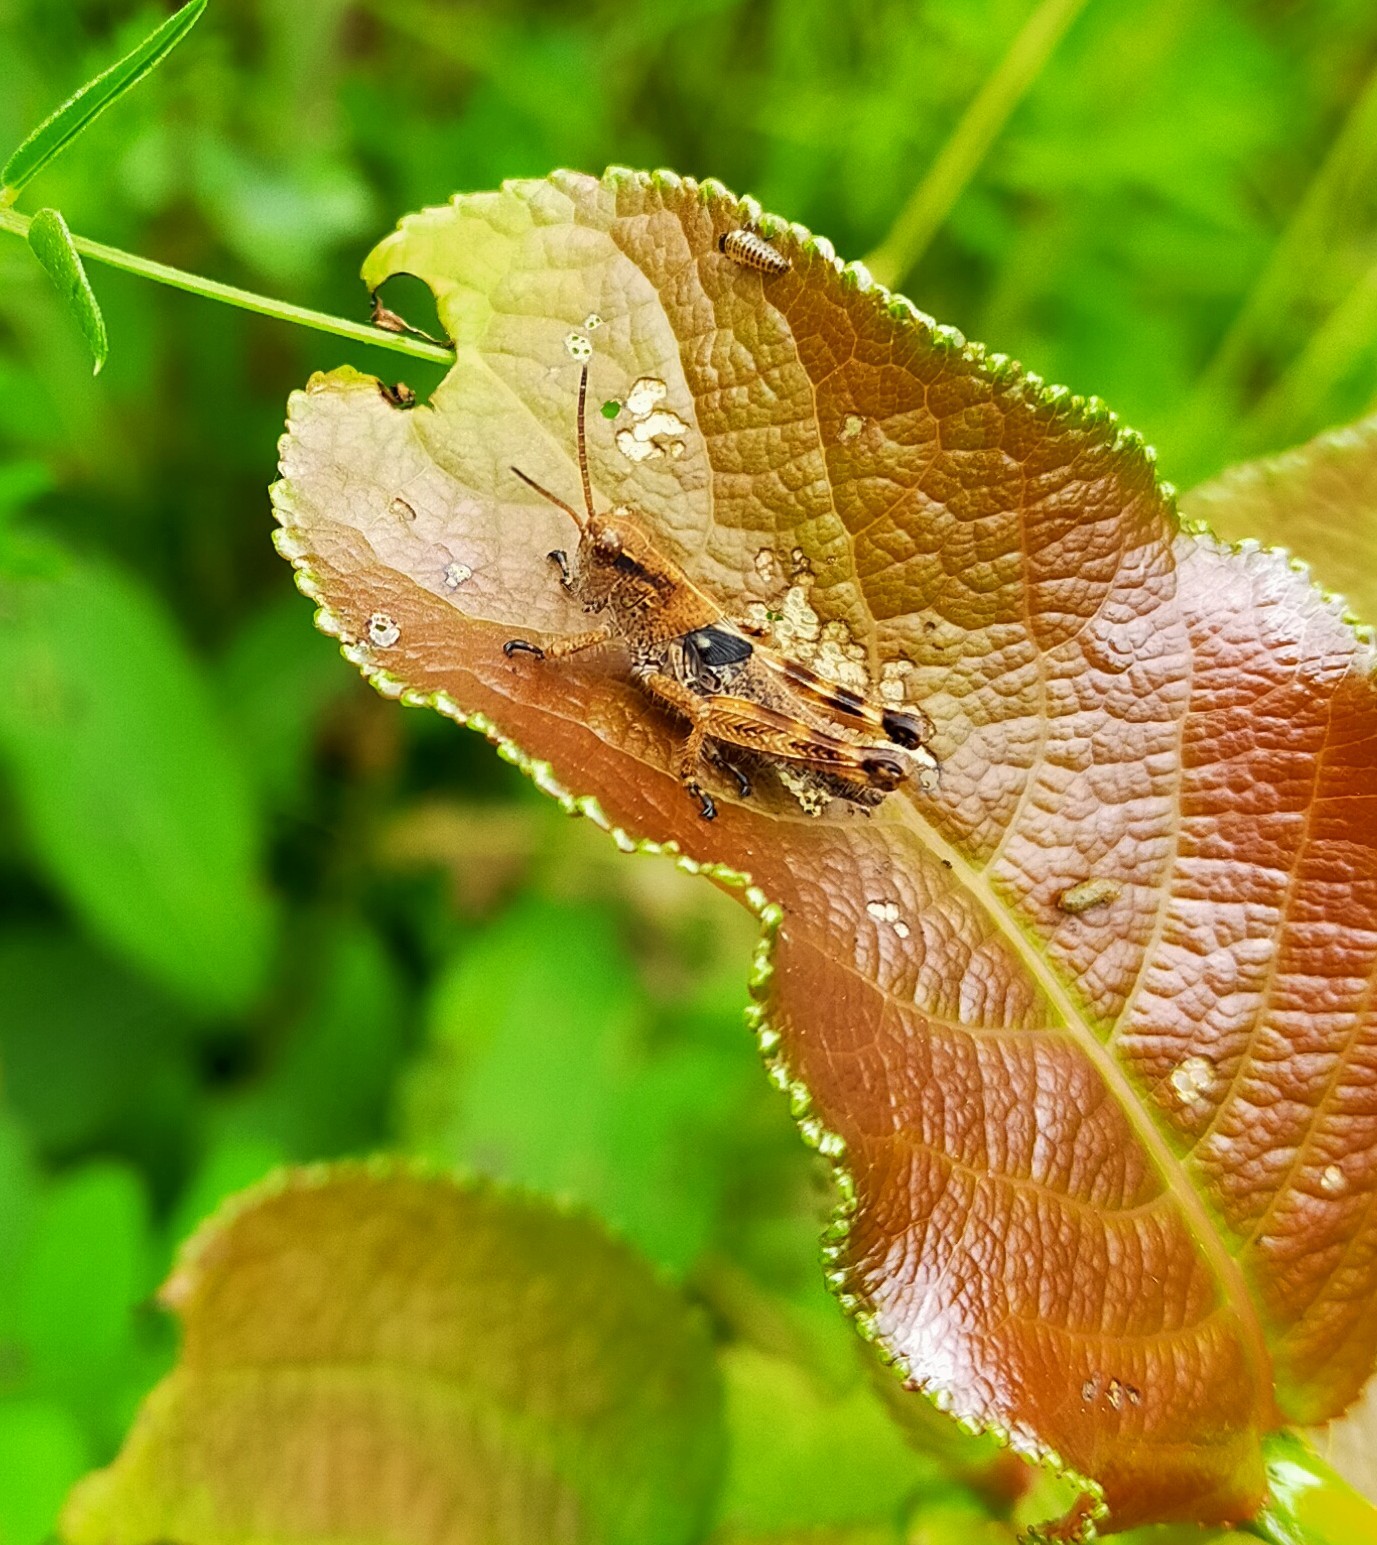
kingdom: Animalia
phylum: Arthropoda
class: Insecta
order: Orthoptera
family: Acrididae
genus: Confusacris
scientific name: Confusacris longipennis
